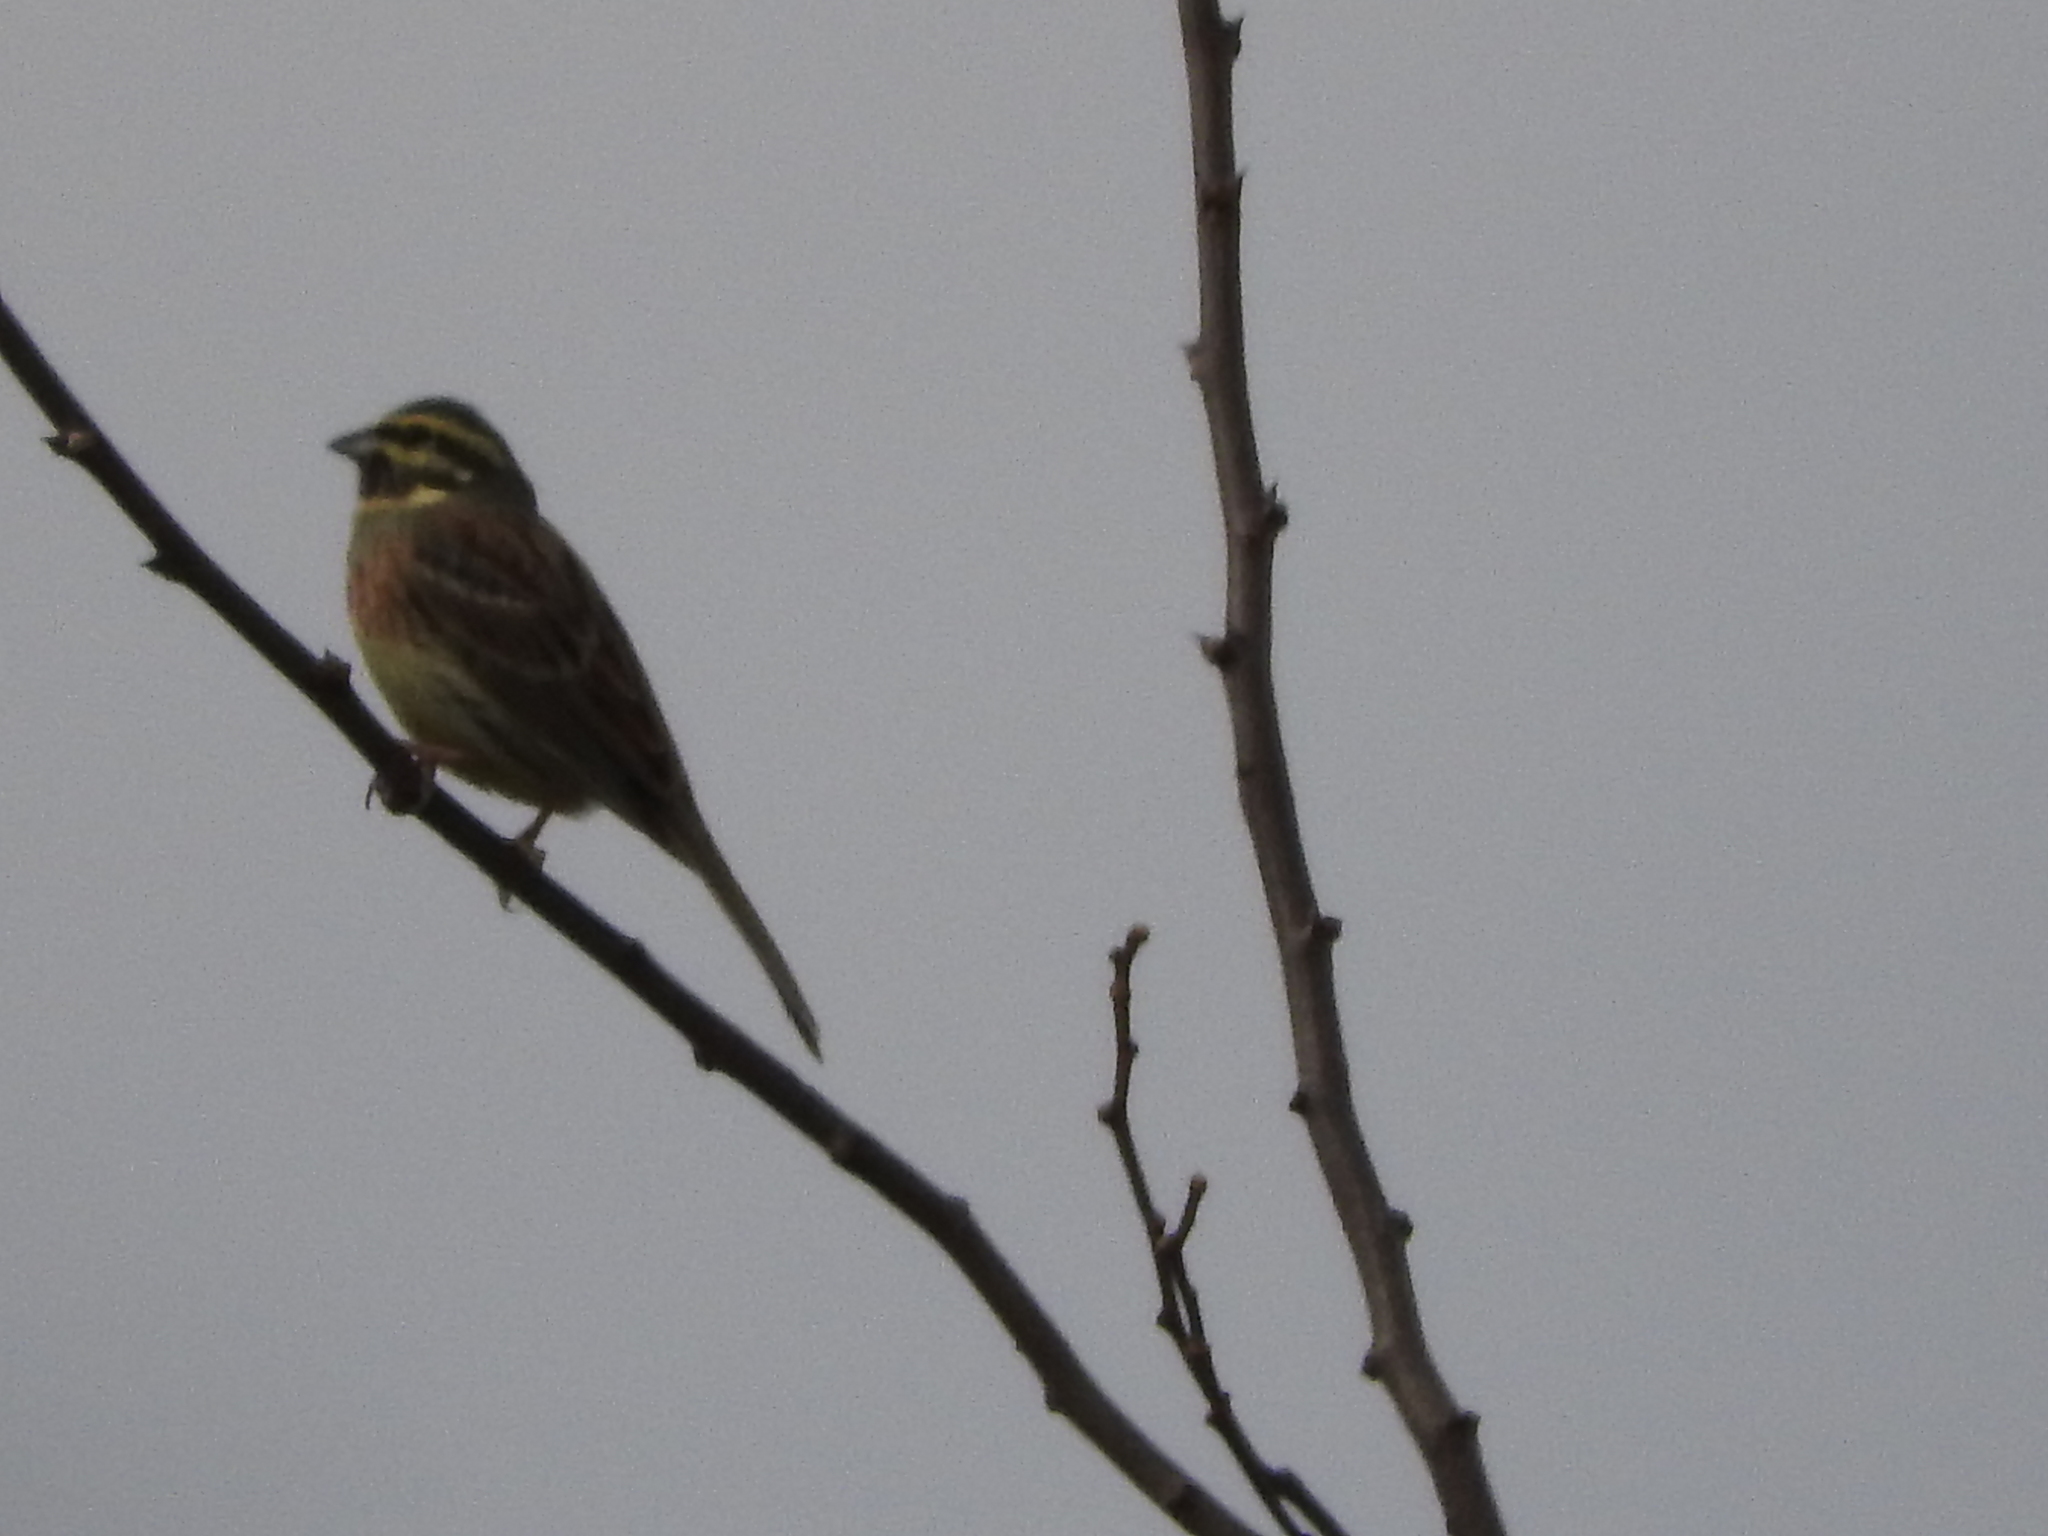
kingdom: Animalia
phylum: Chordata
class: Aves
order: Passeriformes
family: Emberizidae
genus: Emberiza
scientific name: Emberiza cirlus
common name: Cirl bunting
